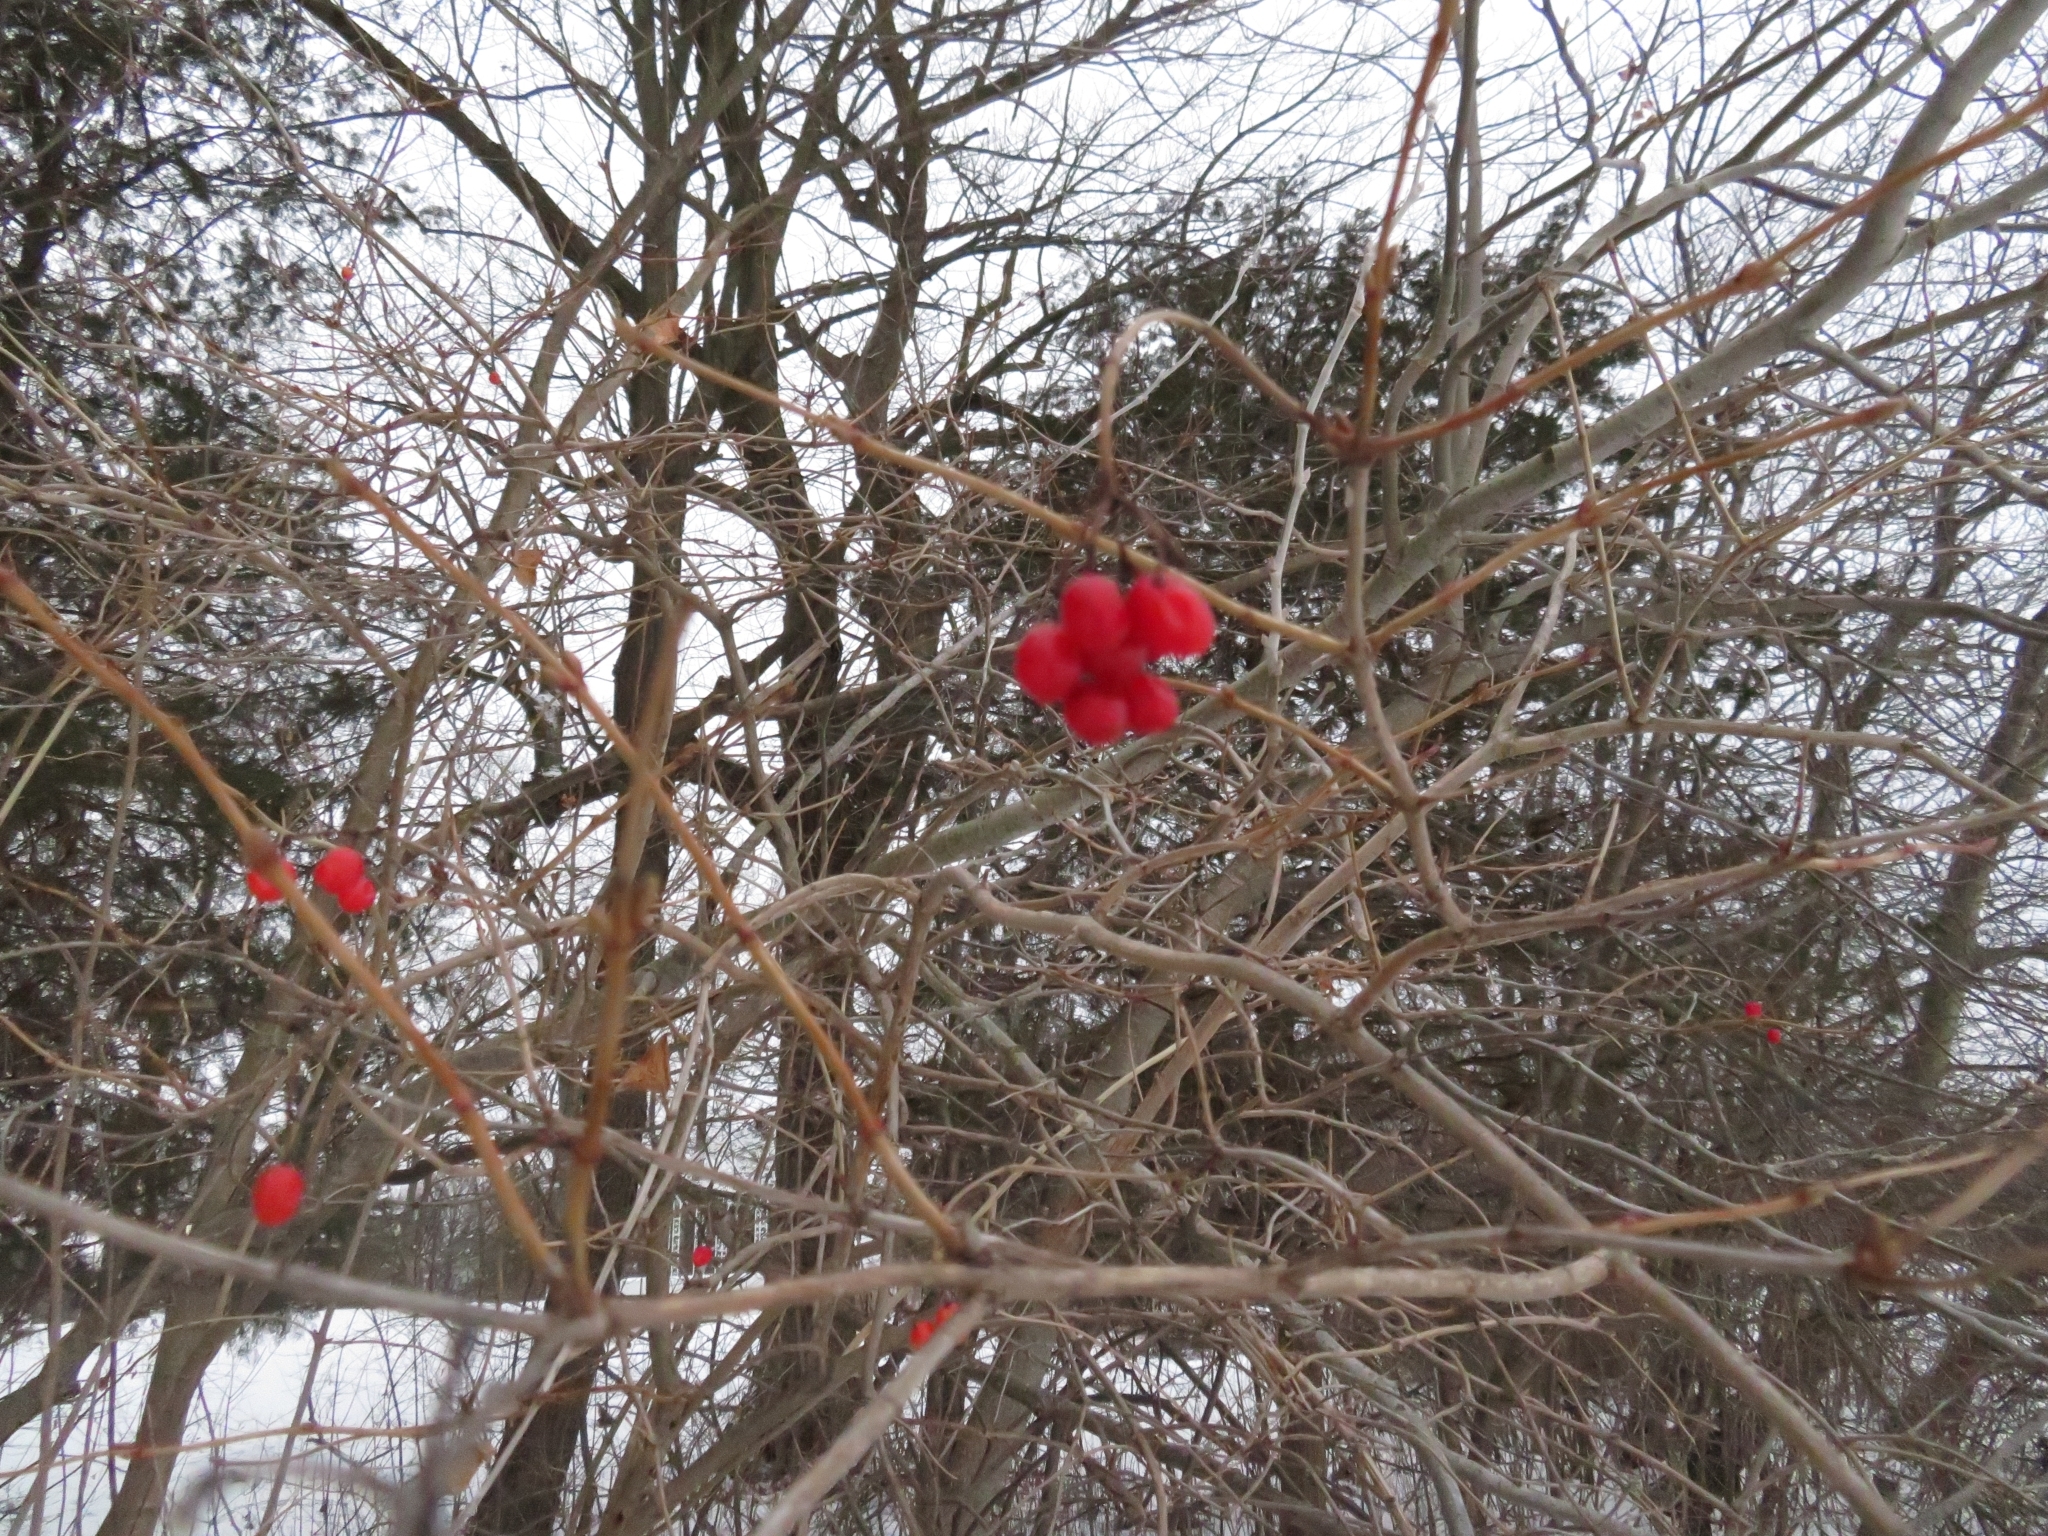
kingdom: Plantae
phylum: Tracheophyta
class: Magnoliopsida
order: Dipsacales
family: Viburnaceae
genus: Viburnum
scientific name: Viburnum opulus
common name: Guelder-rose
